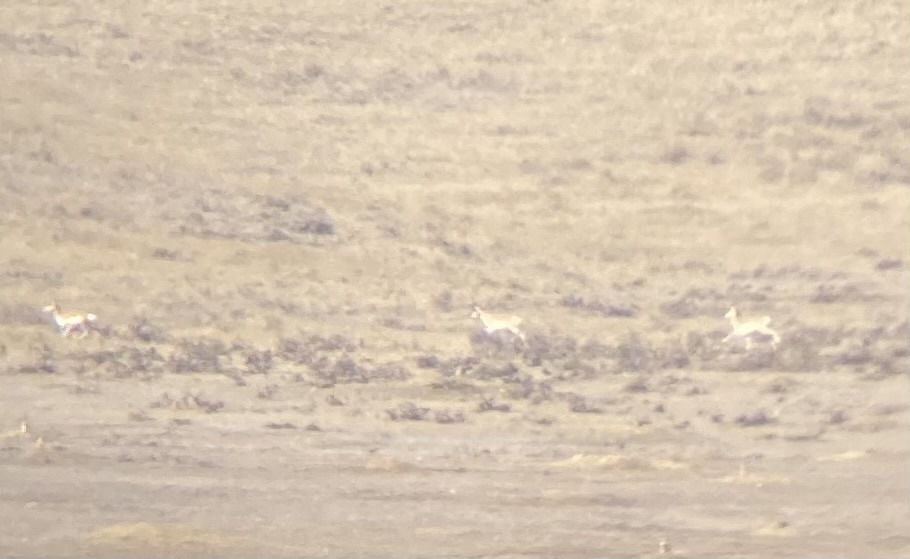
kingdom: Animalia
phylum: Chordata
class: Mammalia
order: Artiodactyla
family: Antilocapridae
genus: Antilocapra
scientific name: Antilocapra americana
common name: Pronghorn
